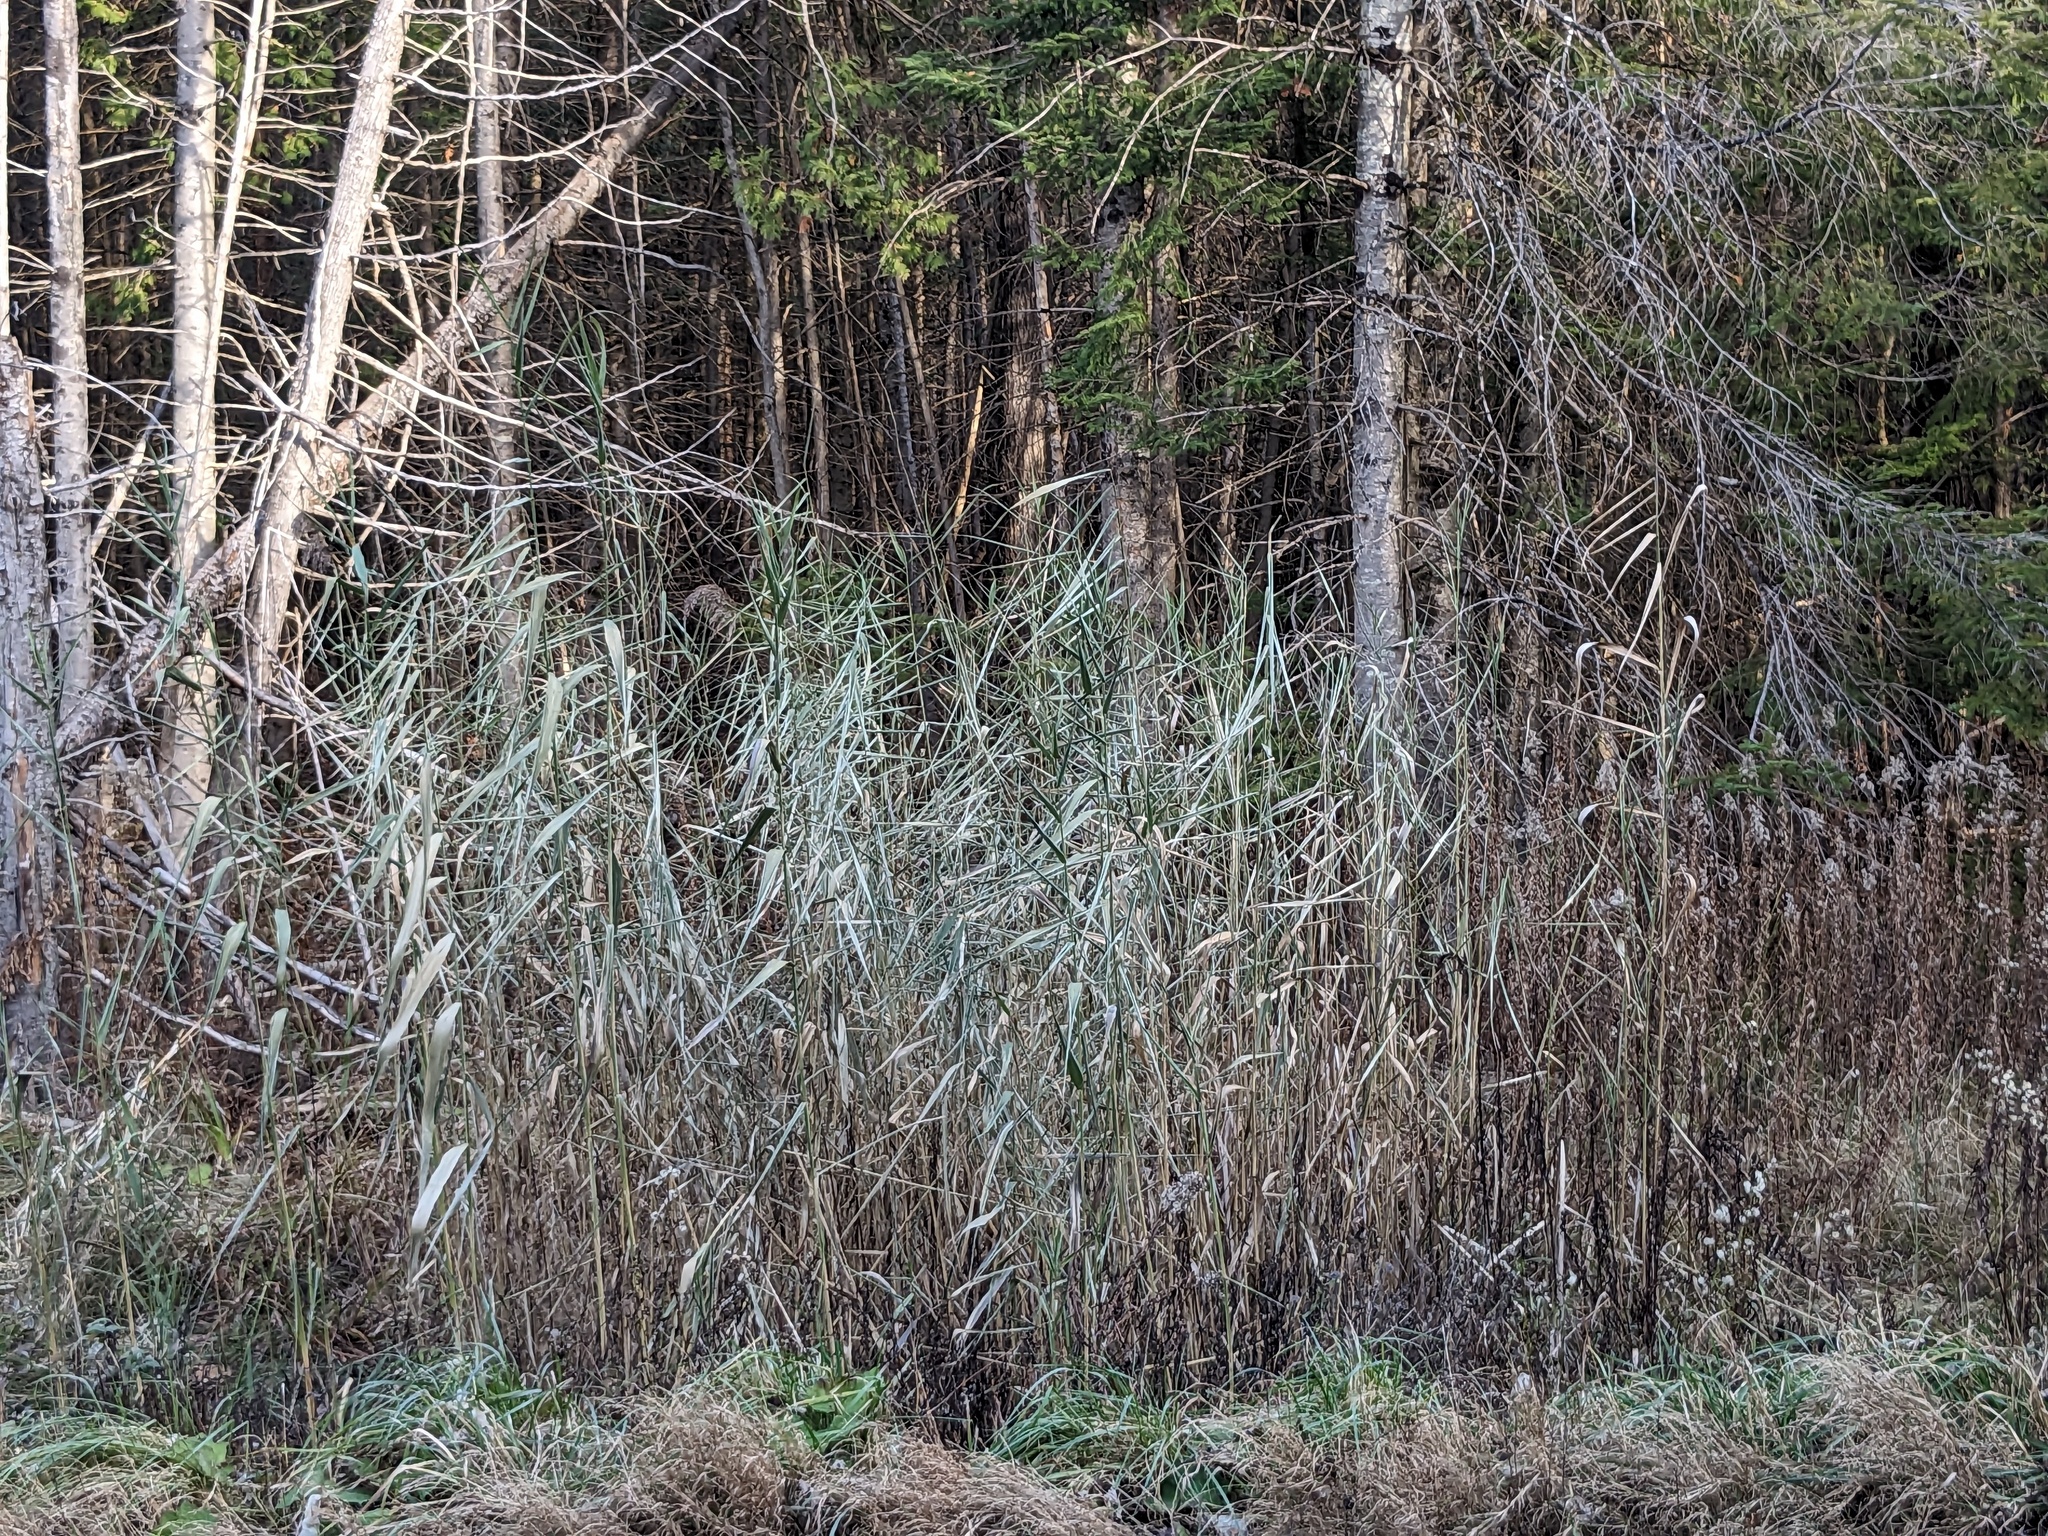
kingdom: Plantae
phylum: Tracheophyta
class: Liliopsida
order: Poales
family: Poaceae
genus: Phragmites
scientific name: Phragmites australis
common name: Common reed
